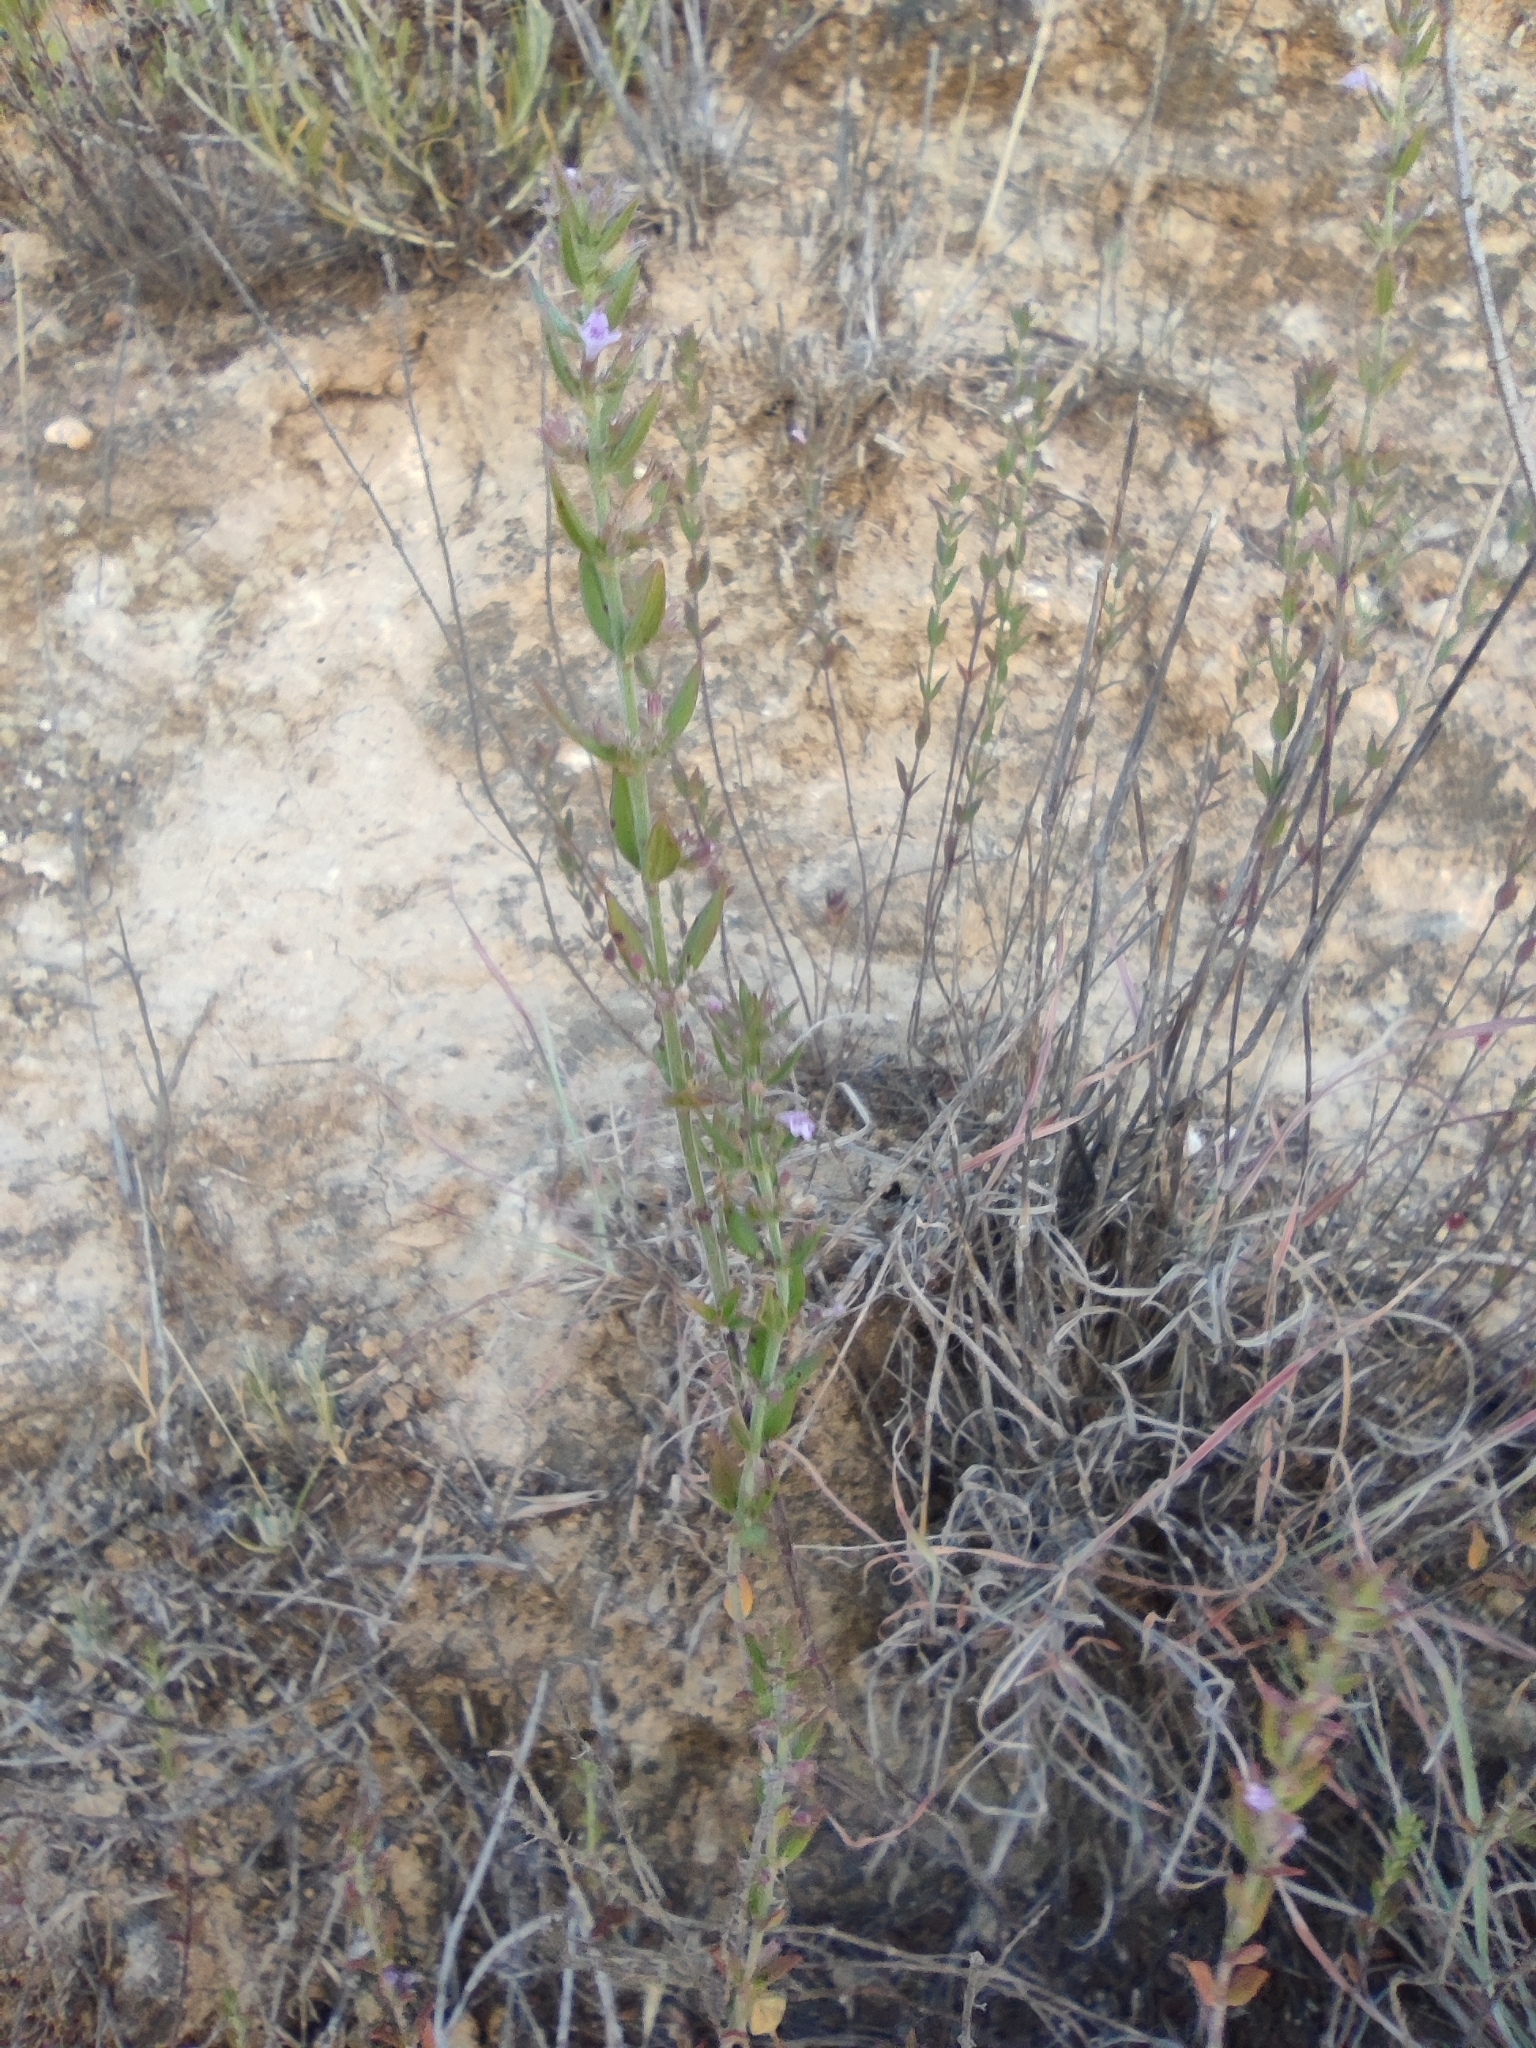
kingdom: Plantae
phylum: Tracheophyta
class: Magnoliopsida
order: Lamiales
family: Lamiaceae
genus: Micromeria
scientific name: Micromeria graeca
